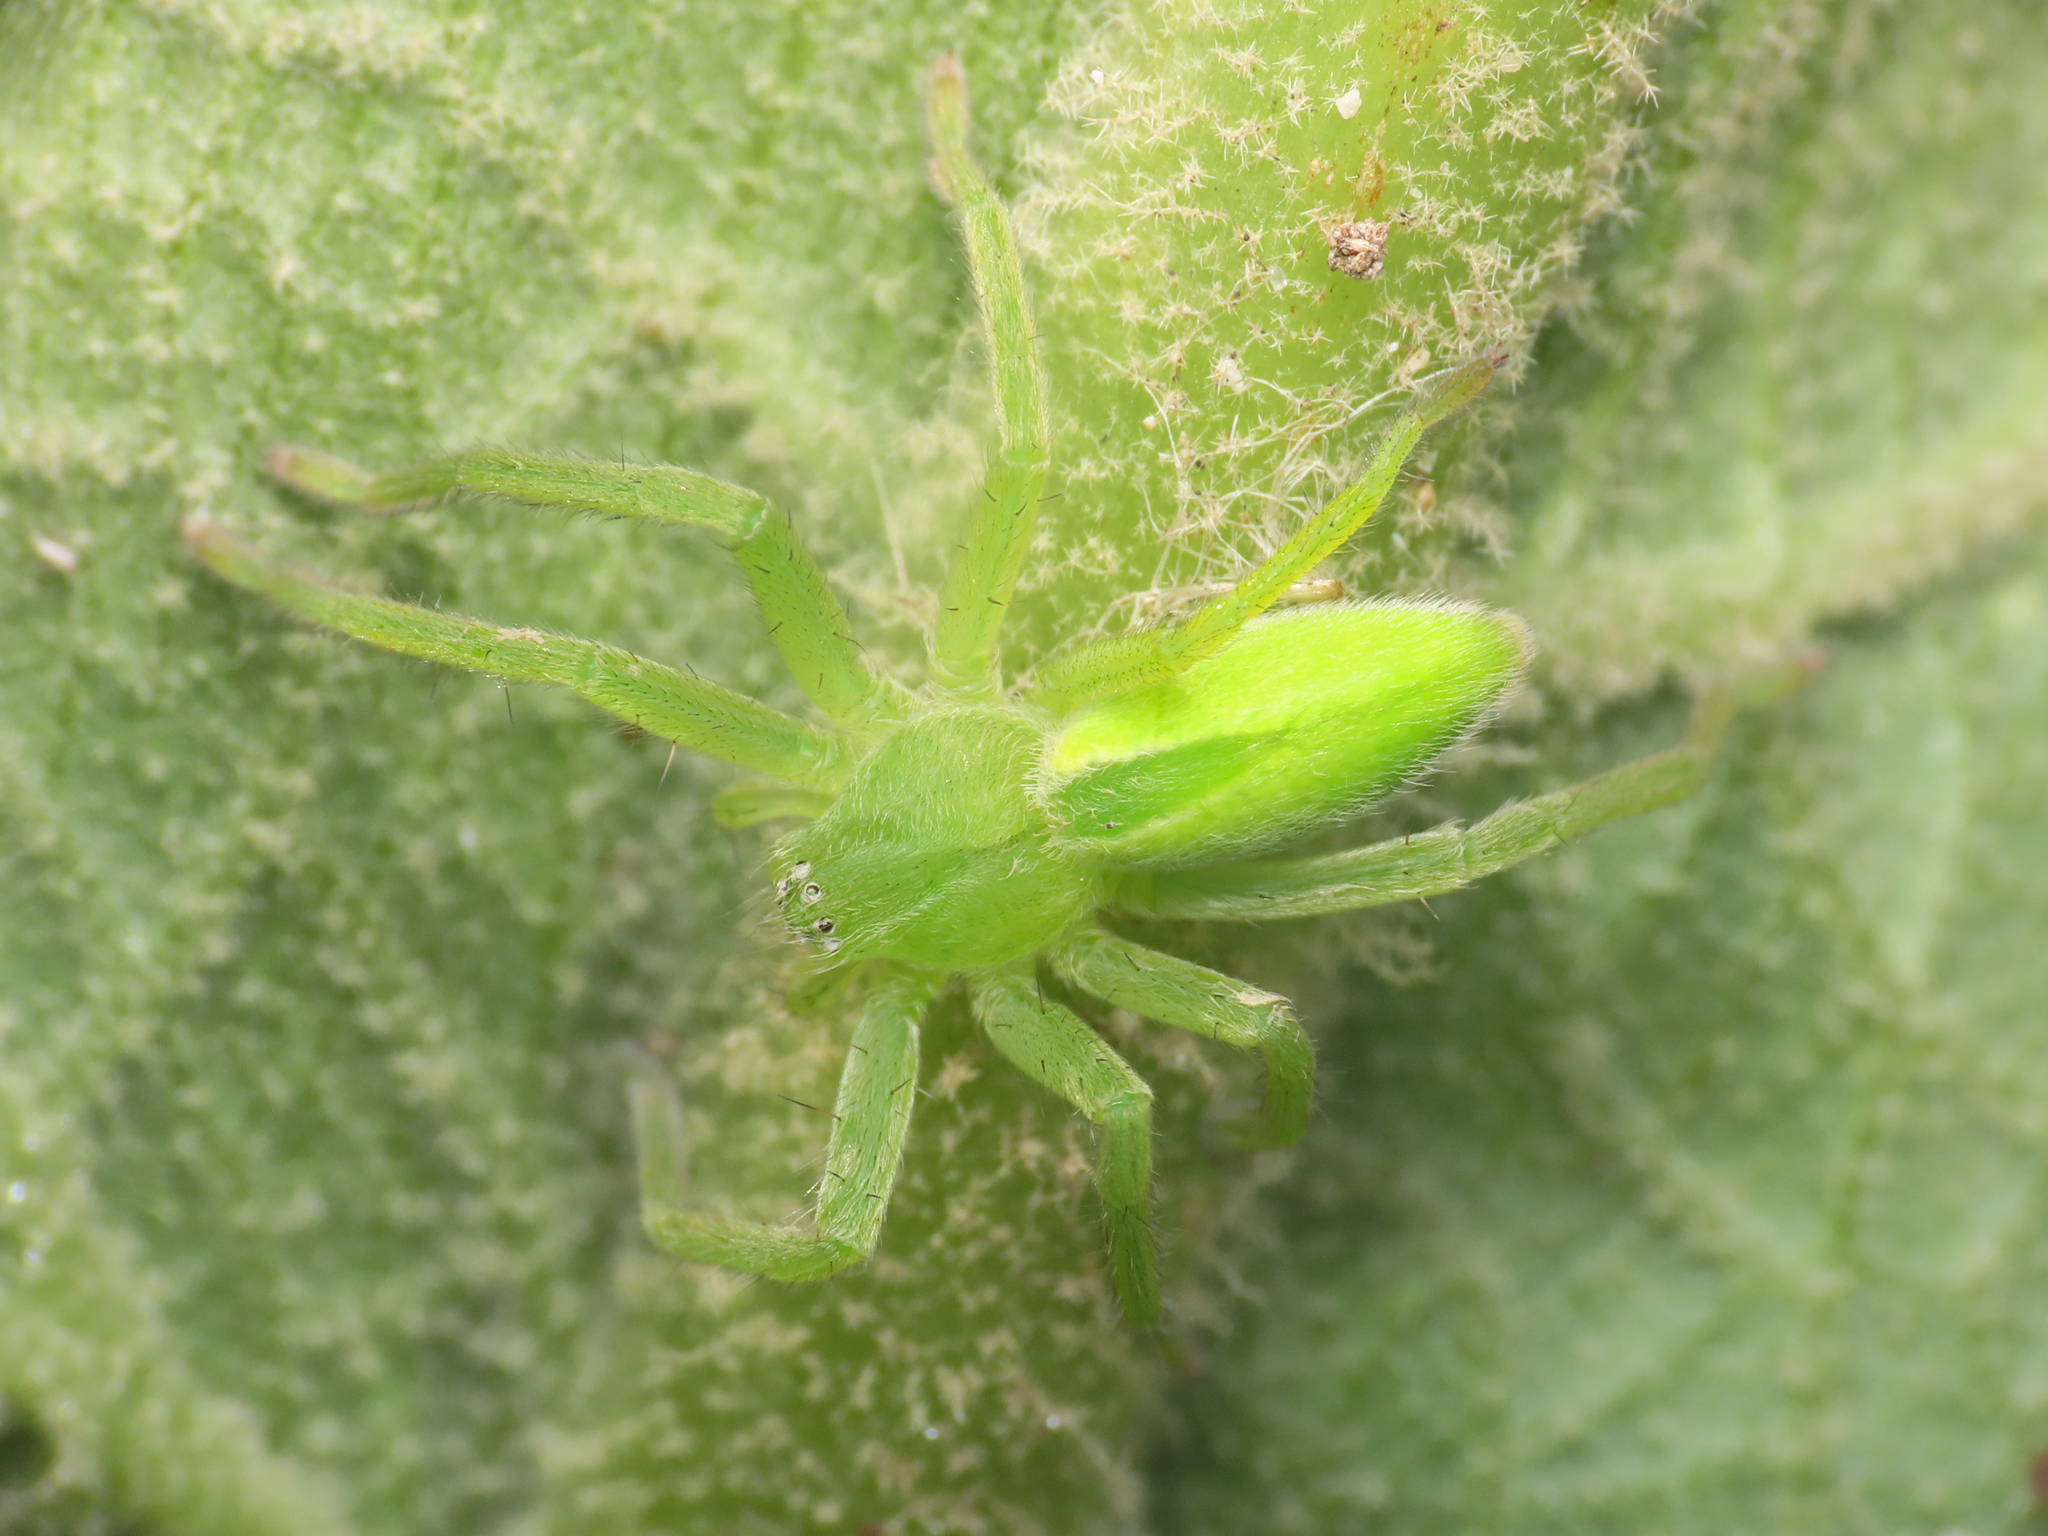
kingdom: Animalia
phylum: Arthropoda
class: Arachnida
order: Araneae
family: Sparassidae
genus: Micrommata
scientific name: Micrommata virescens
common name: Green spider
